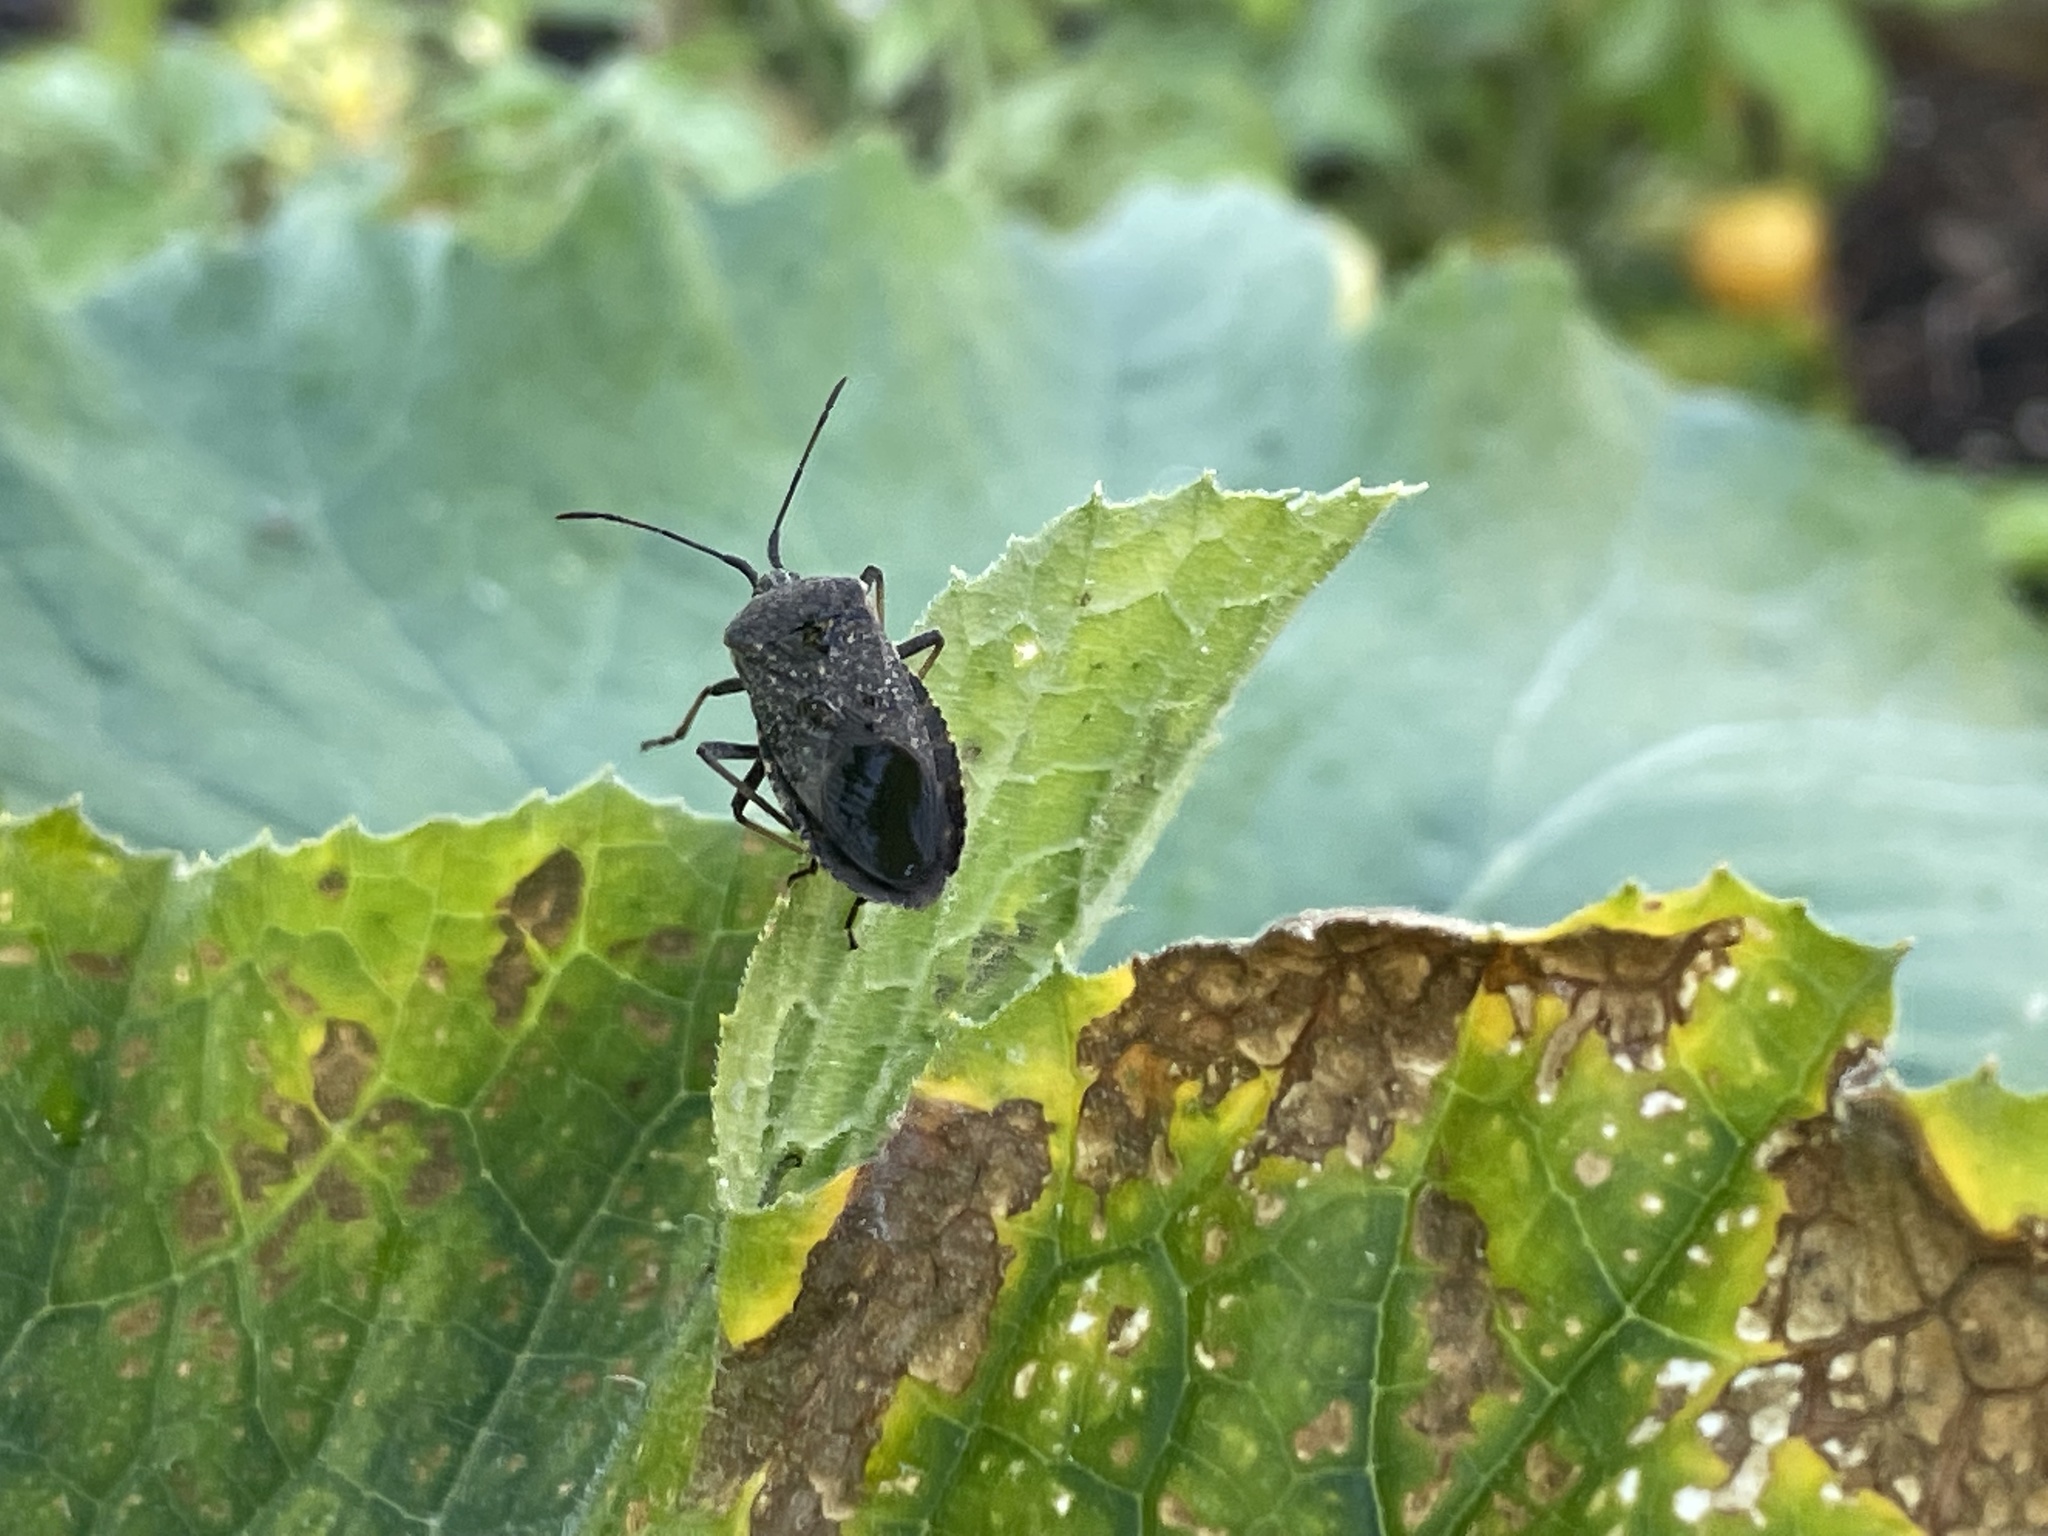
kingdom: Animalia
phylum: Arthropoda
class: Insecta
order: Hemiptera
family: Coreidae
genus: Anasa
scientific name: Anasa tristis
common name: Squash bug
